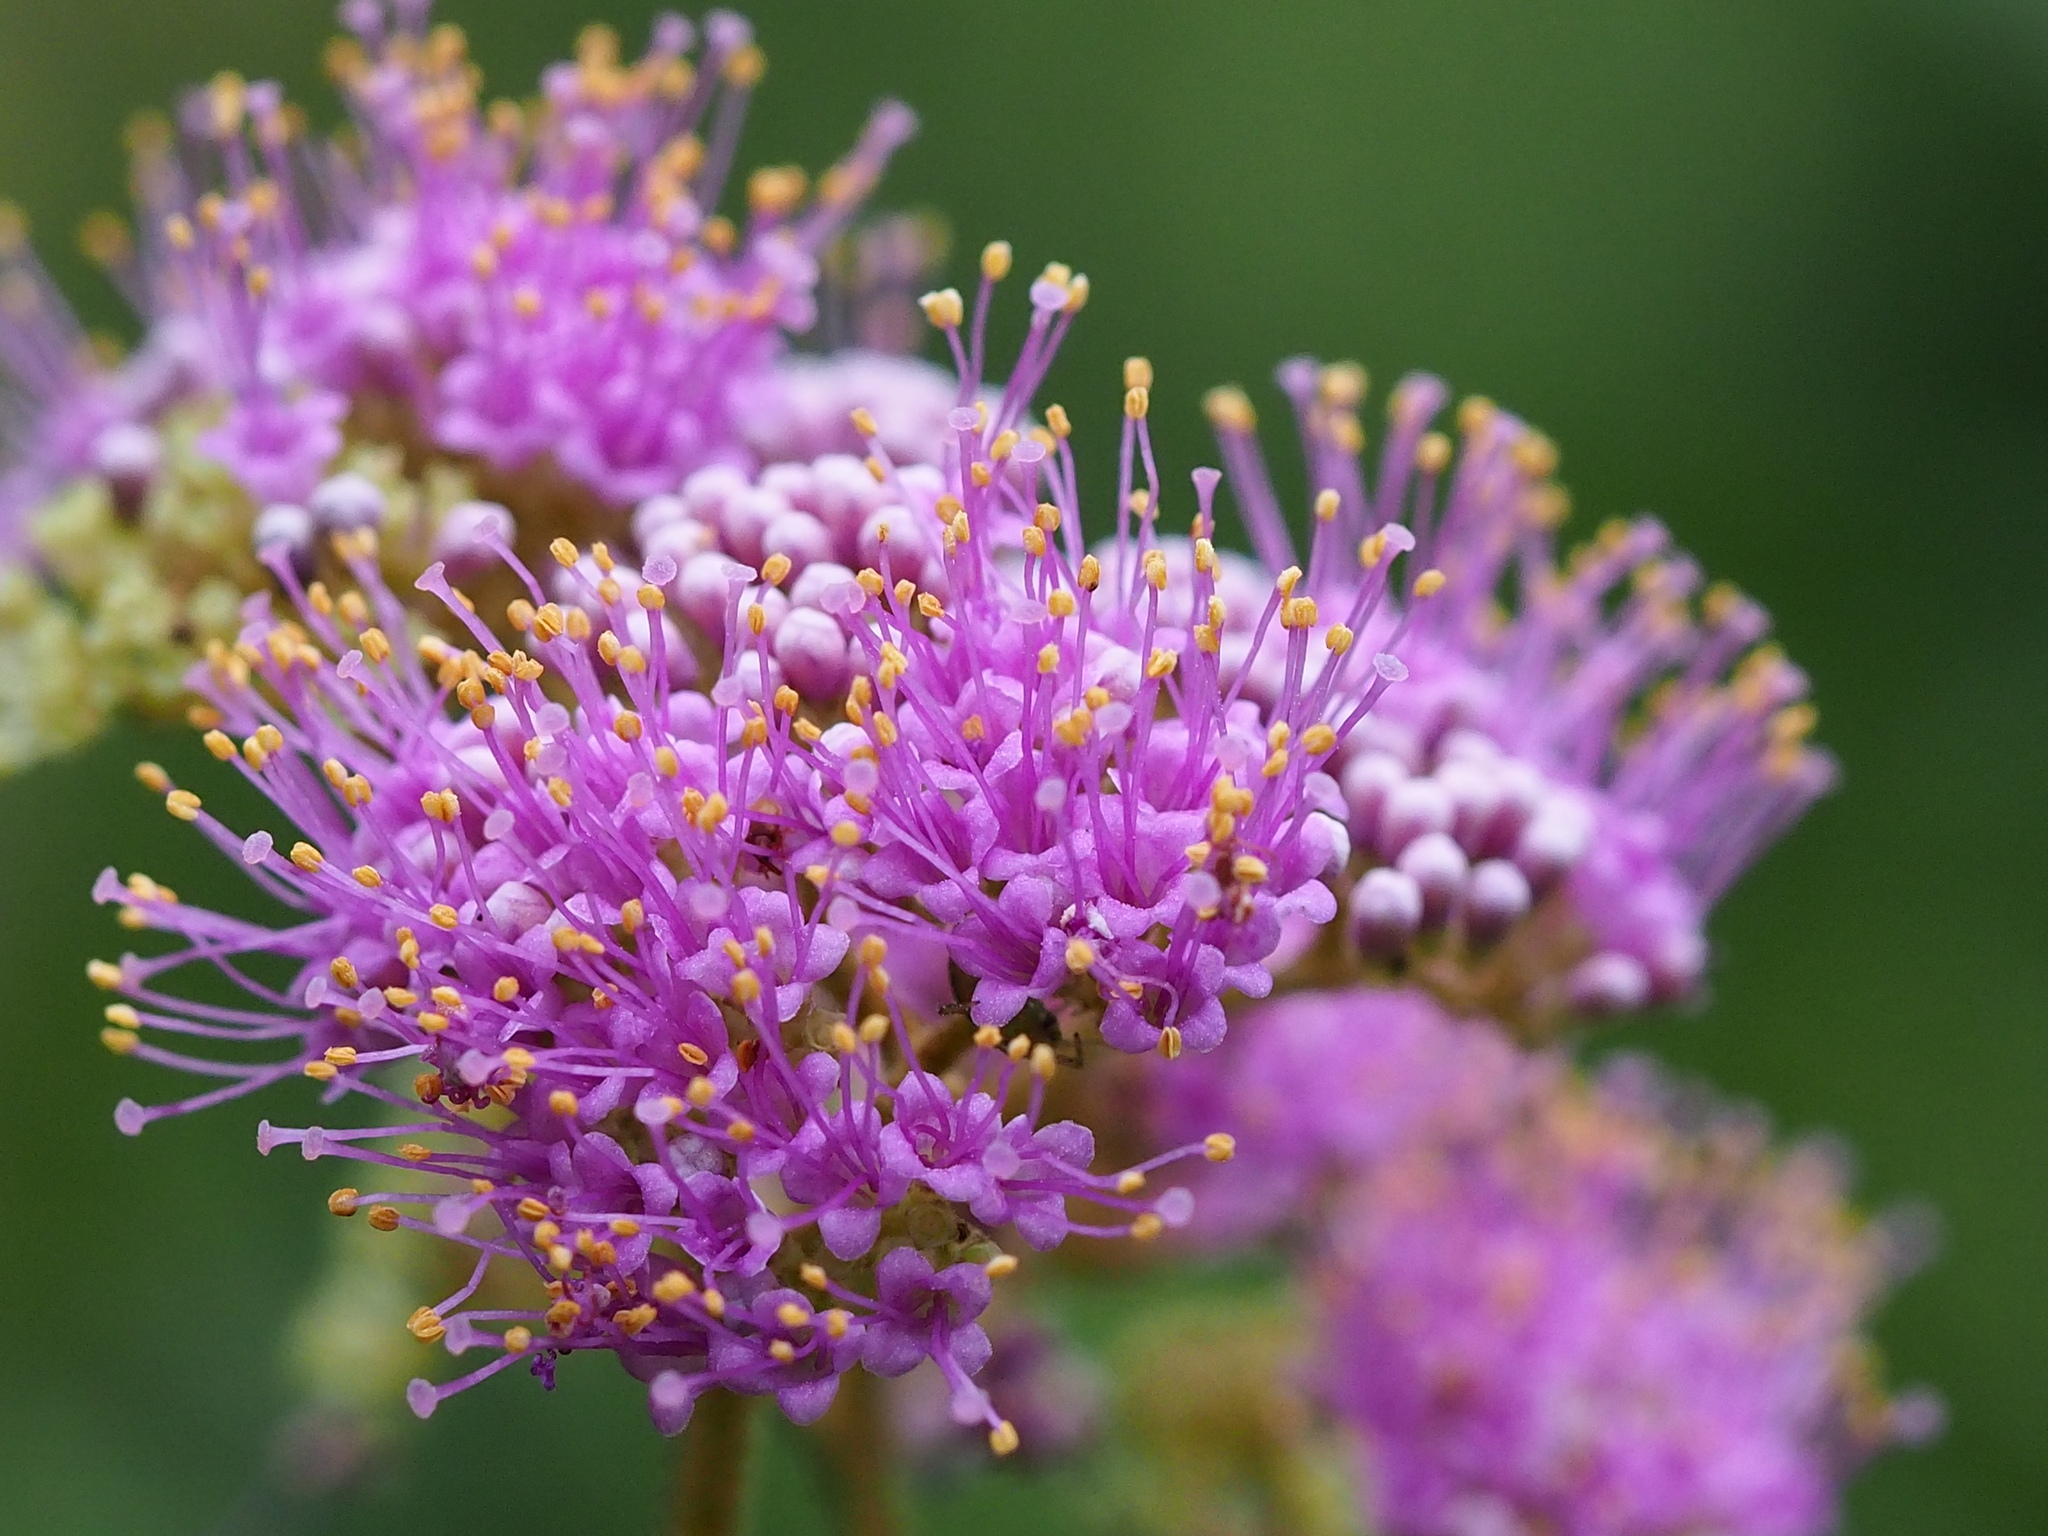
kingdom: Plantae
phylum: Tracheophyta
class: Magnoliopsida
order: Lamiales
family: Lamiaceae
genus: Callicarpa
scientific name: Callicarpa pedunculata
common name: Velvetleaf
